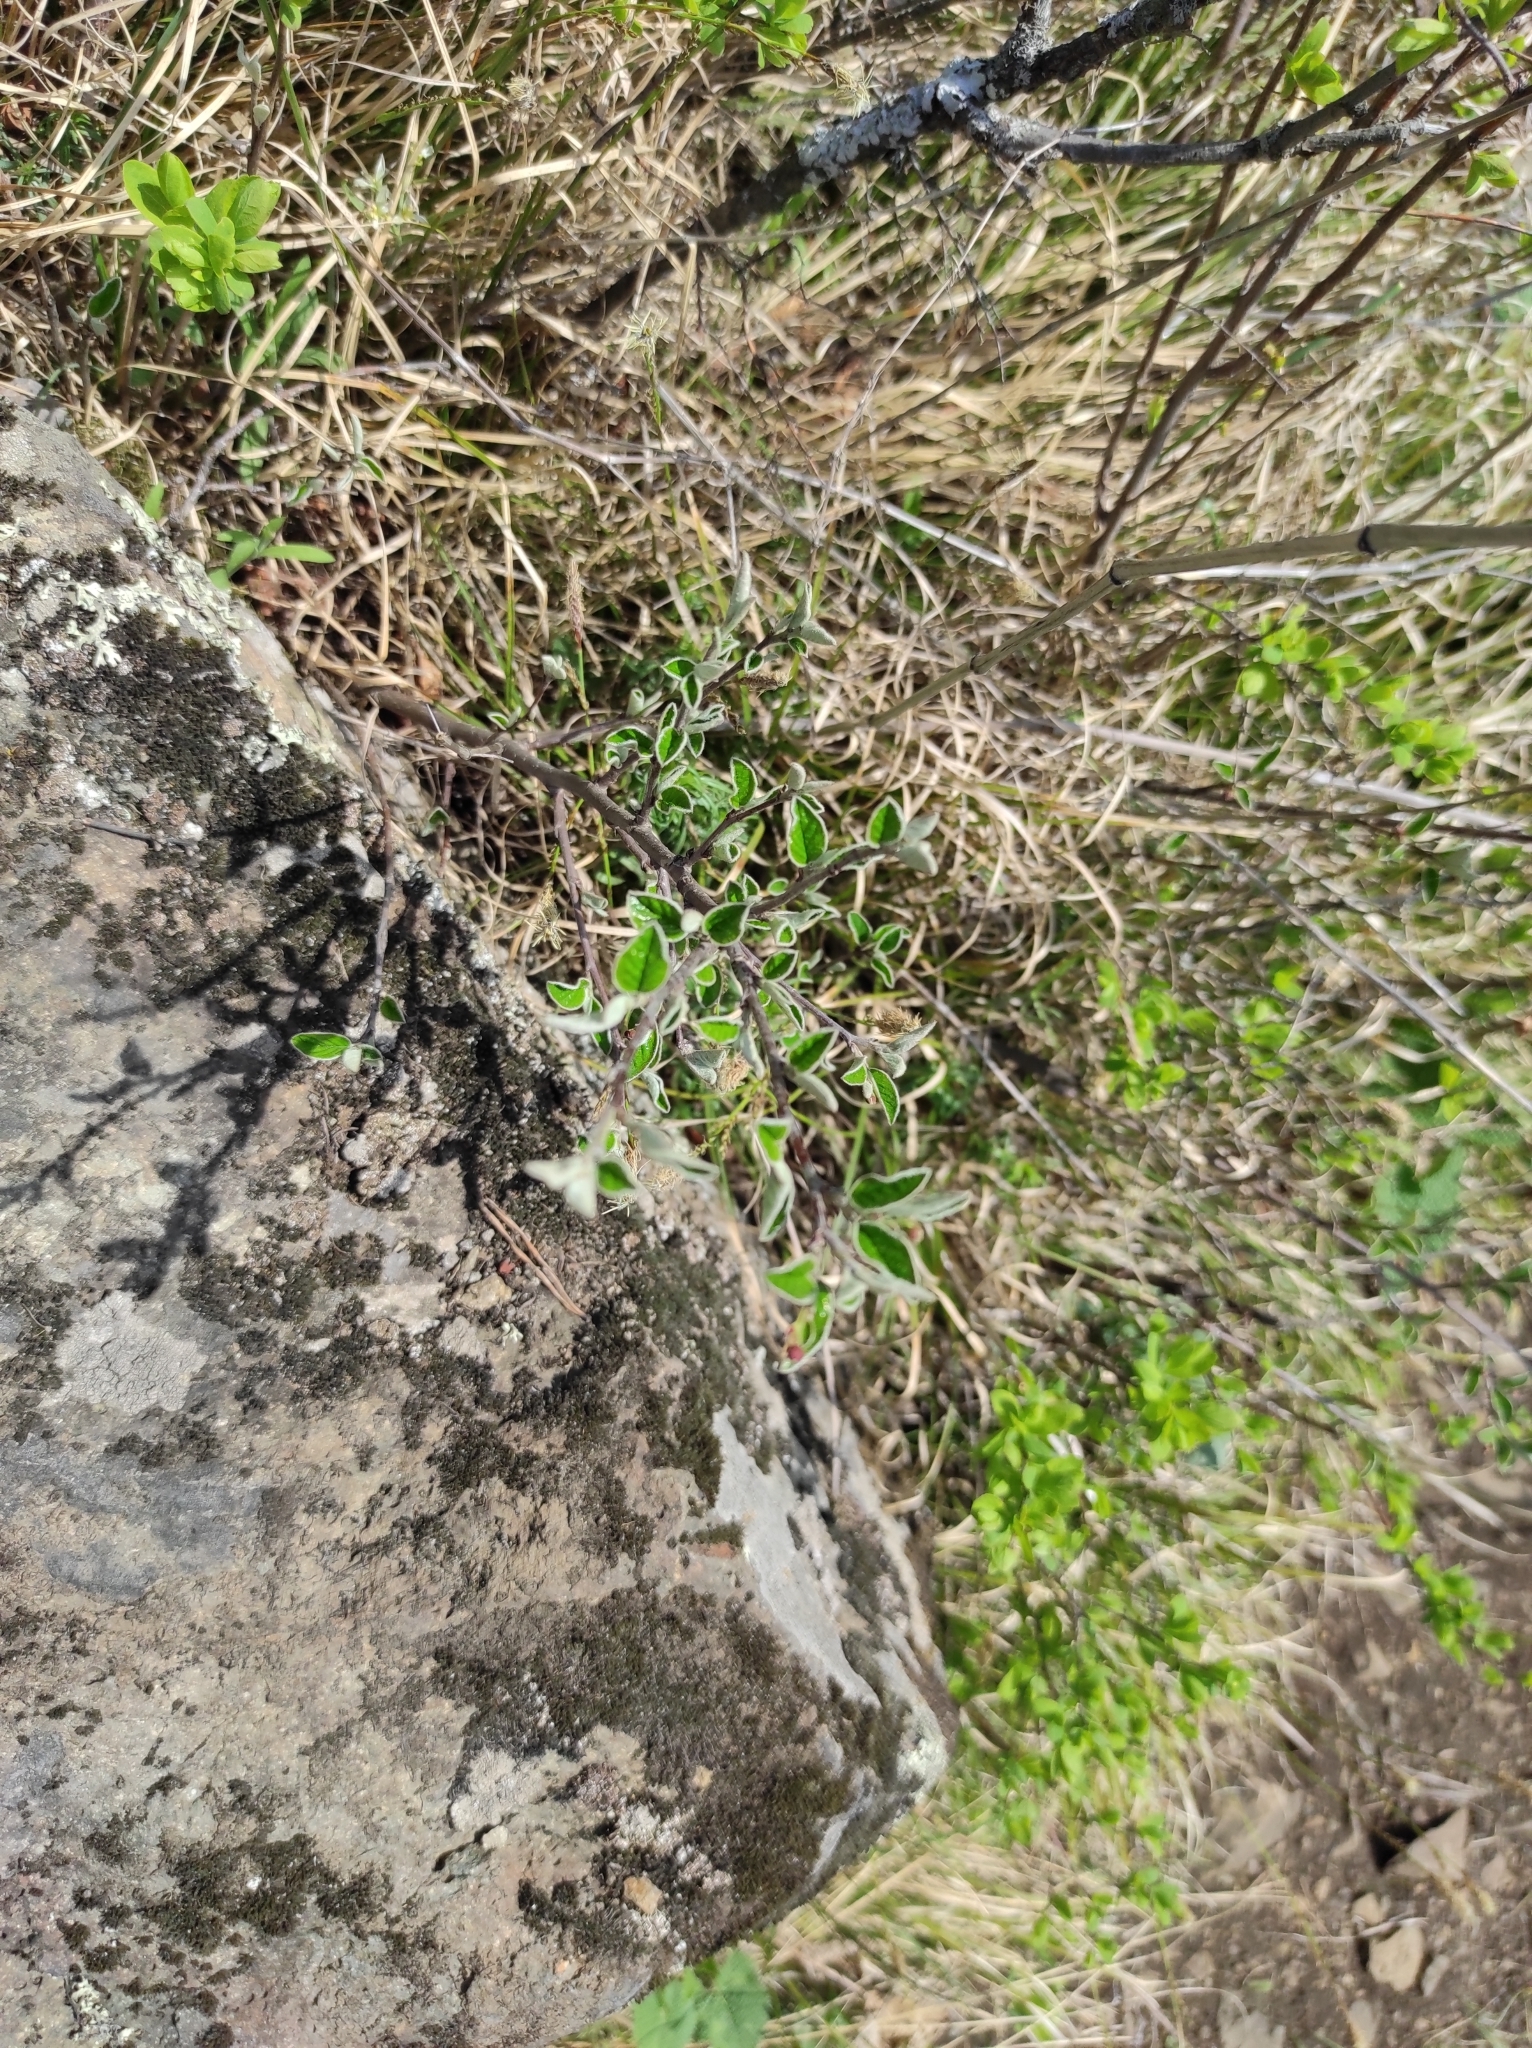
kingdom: Plantae
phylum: Tracheophyta
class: Magnoliopsida
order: Rosales
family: Rosaceae
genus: Cotoneaster
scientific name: Cotoneaster melanocarpus
